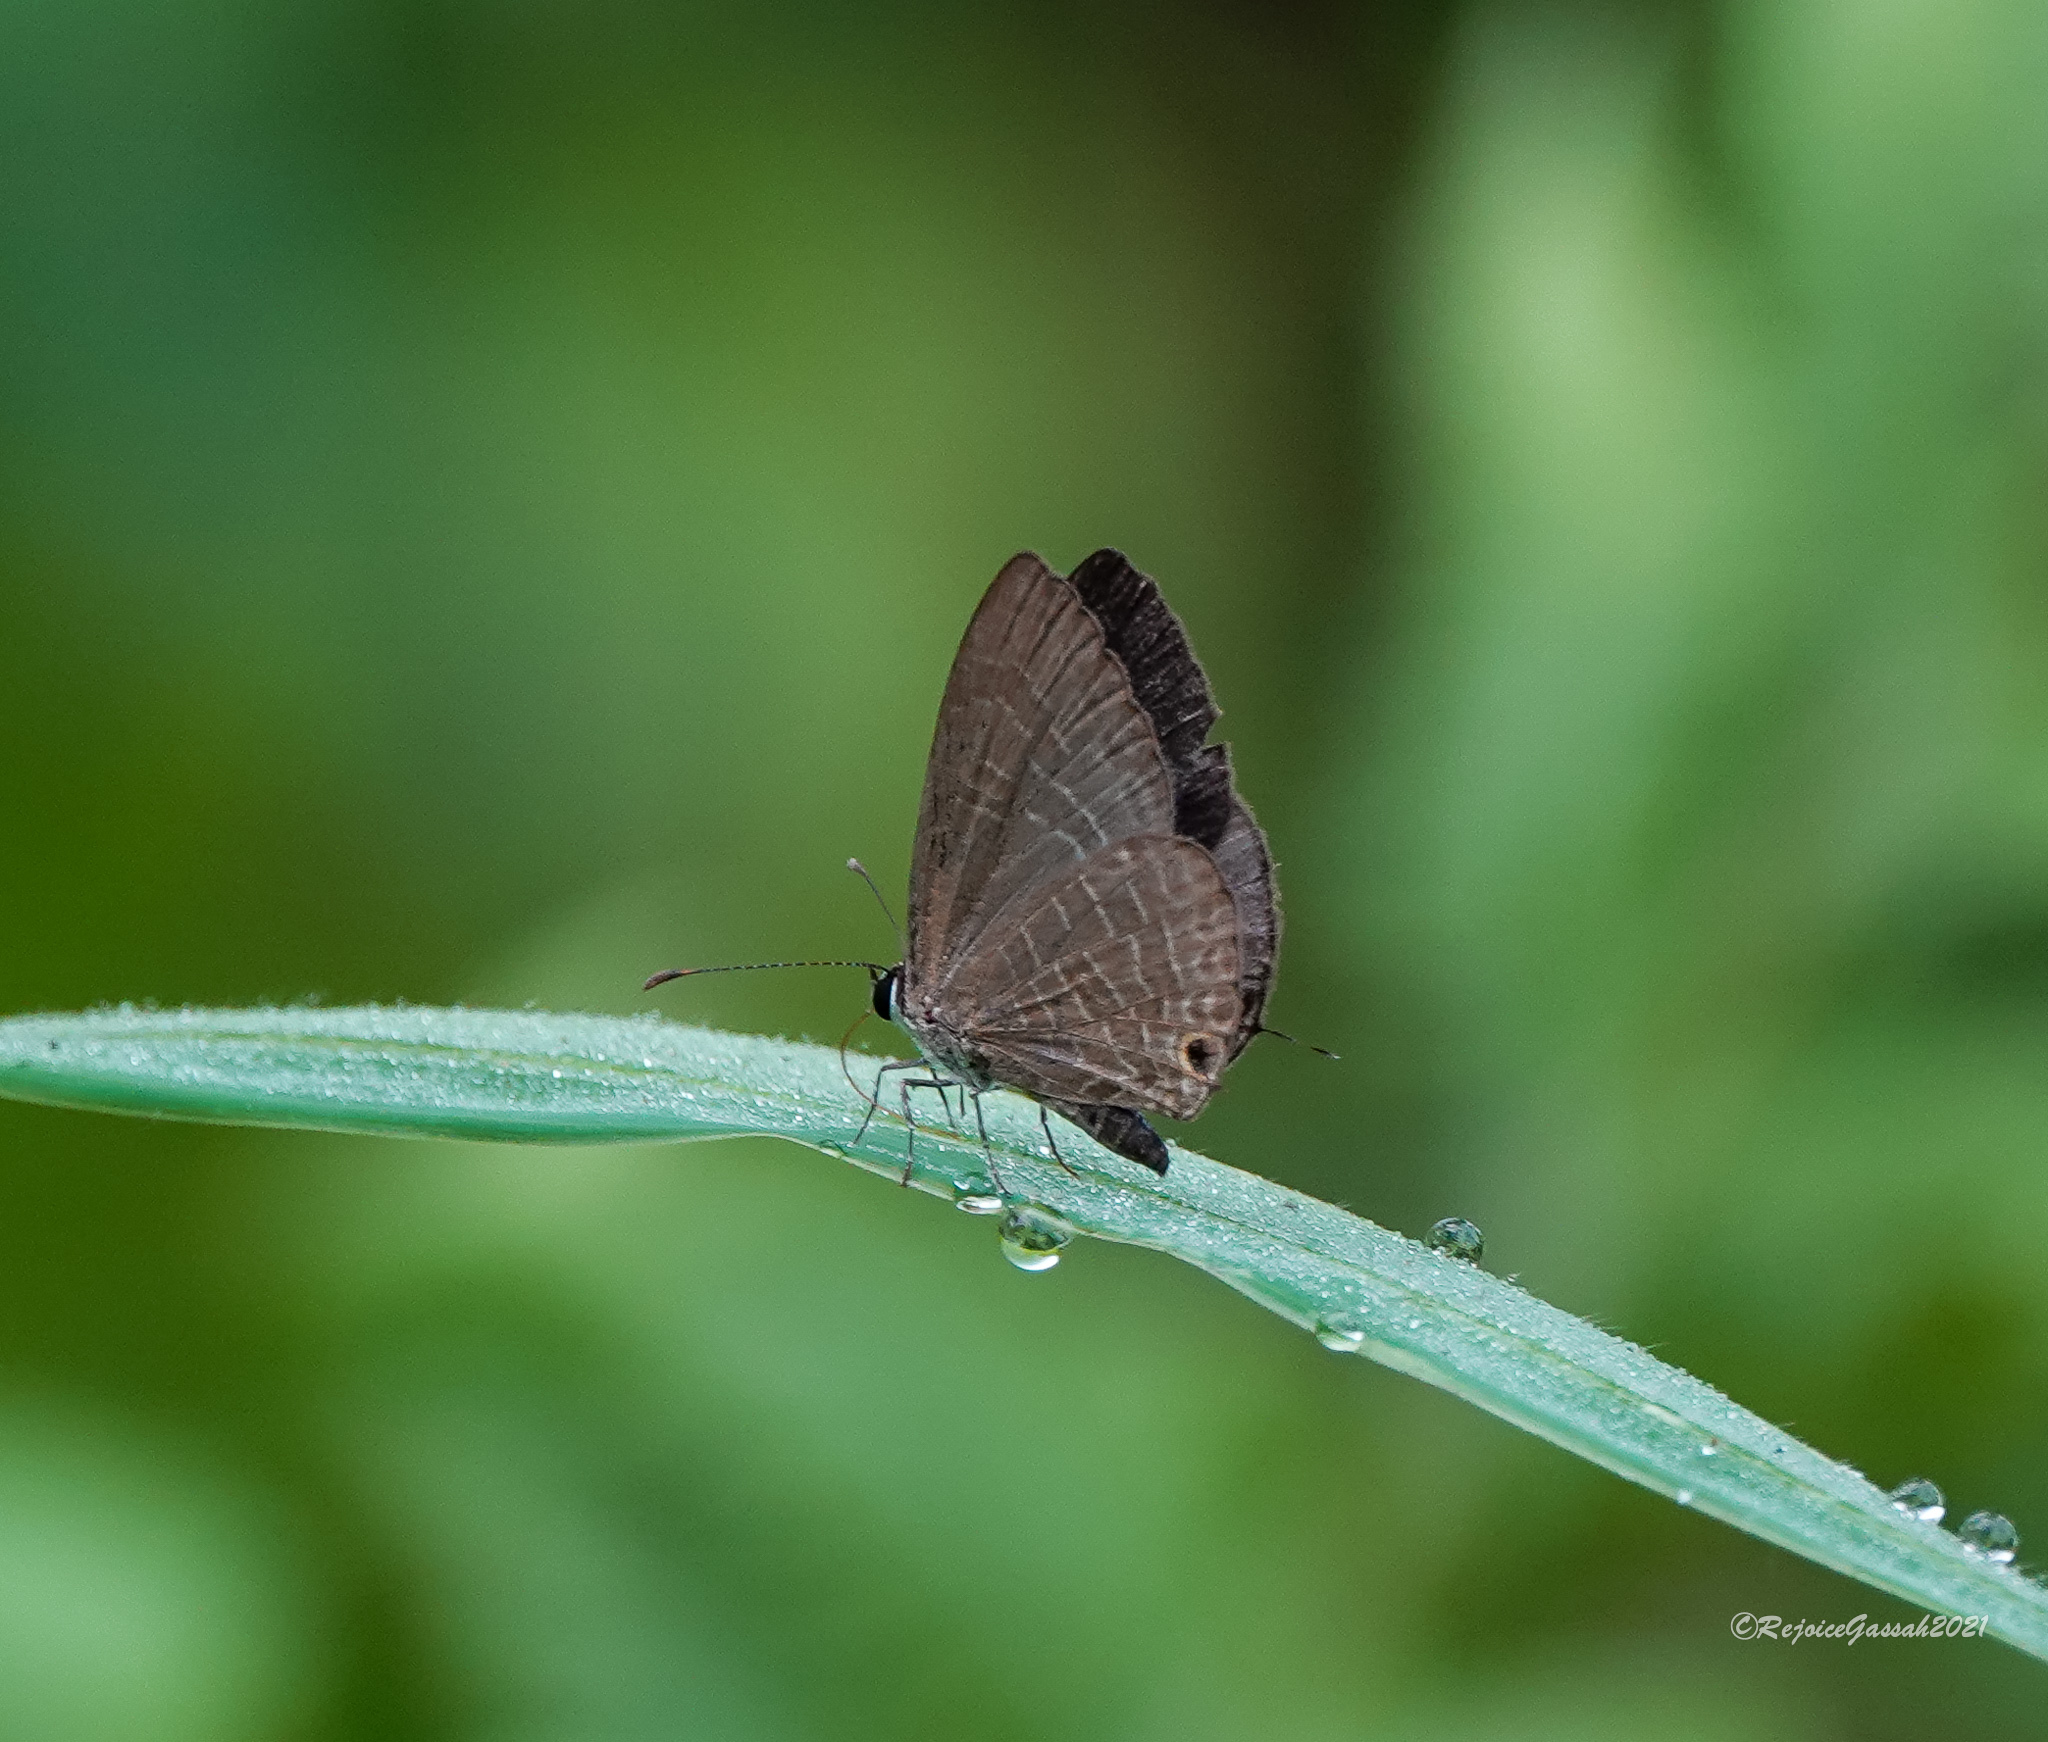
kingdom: Animalia
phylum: Arthropoda
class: Insecta
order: Lepidoptera
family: Lycaenidae
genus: Jamides
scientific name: Jamides bochus
